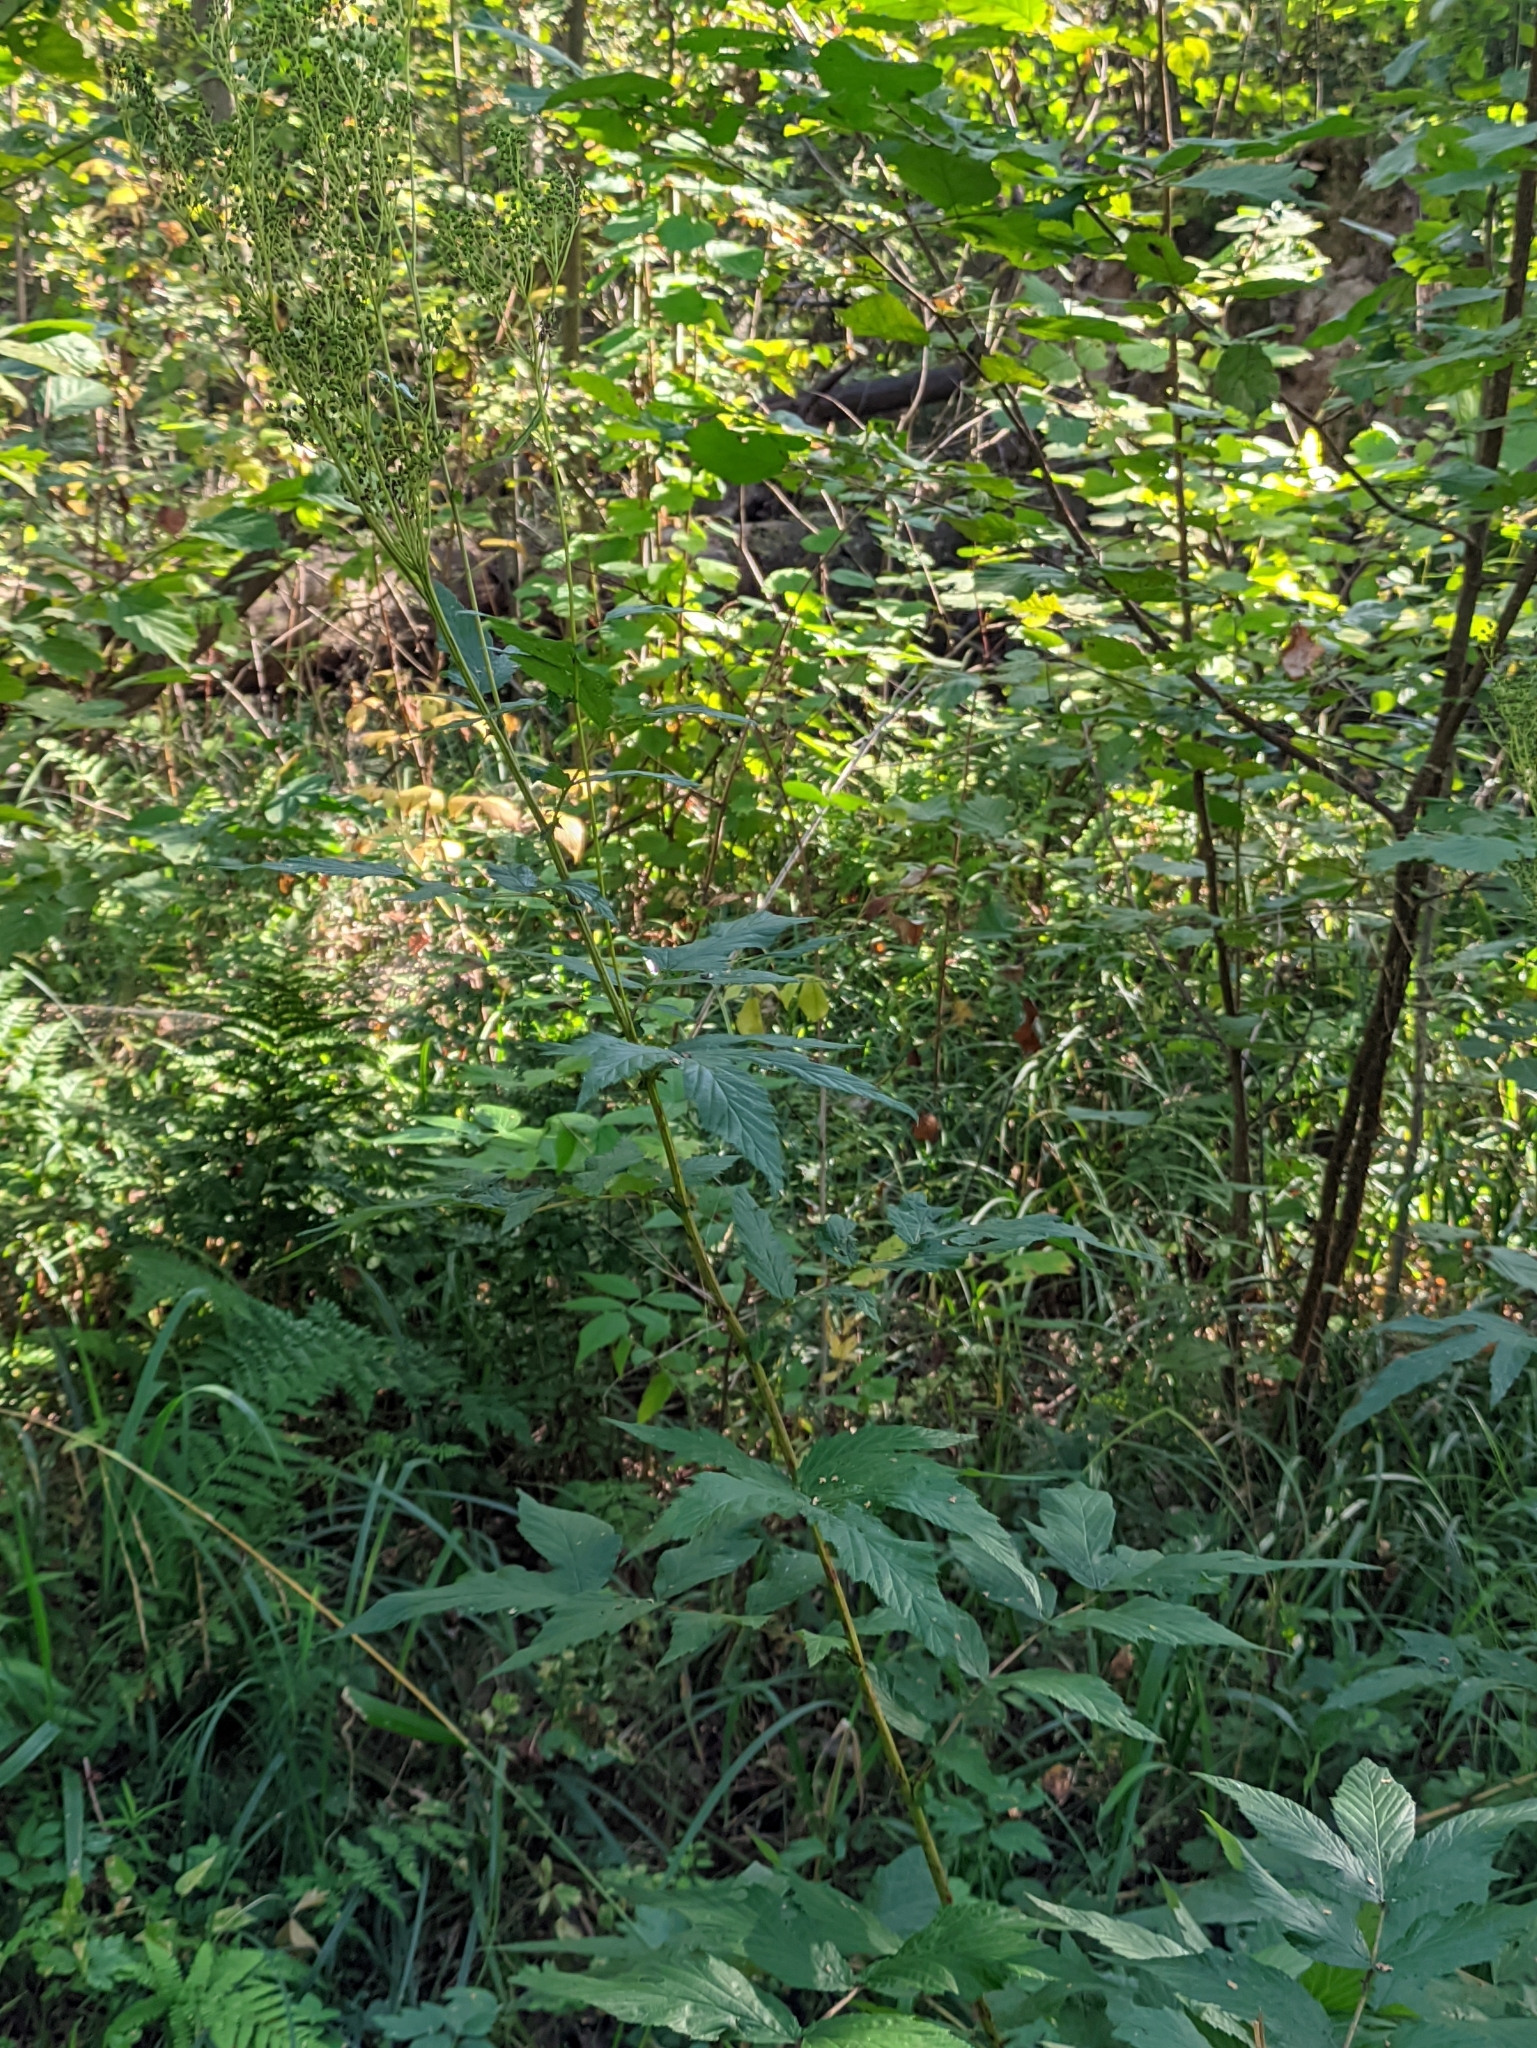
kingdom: Plantae
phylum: Tracheophyta
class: Magnoliopsida
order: Rosales
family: Rosaceae
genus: Filipendula
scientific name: Filipendula ulmaria
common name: Meadowsweet
